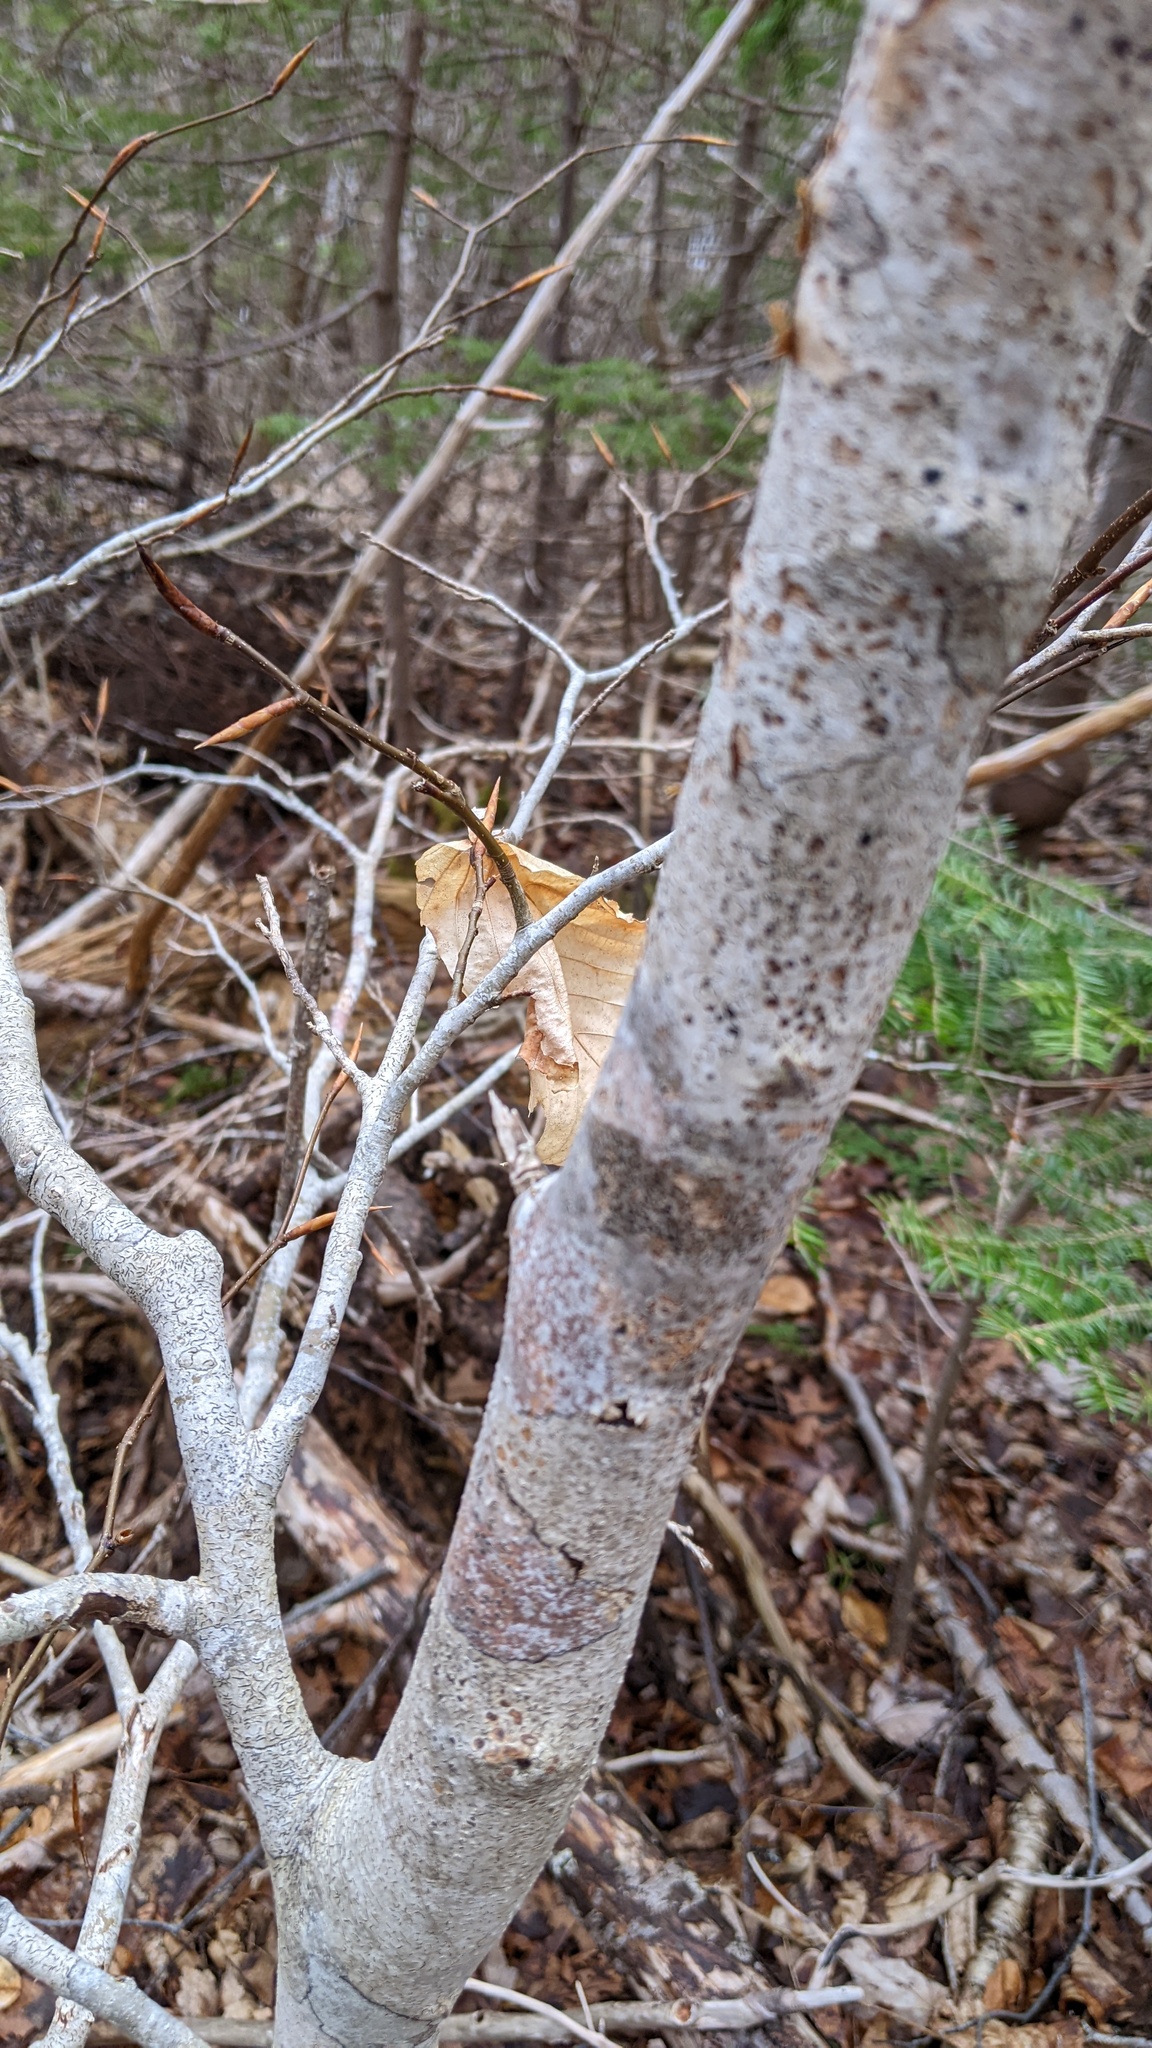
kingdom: Plantae
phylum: Tracheophyta
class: Magnoliopsida
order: Fagales
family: Fagaceae
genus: Fagus
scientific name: Fagus grandifolia
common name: American beech
